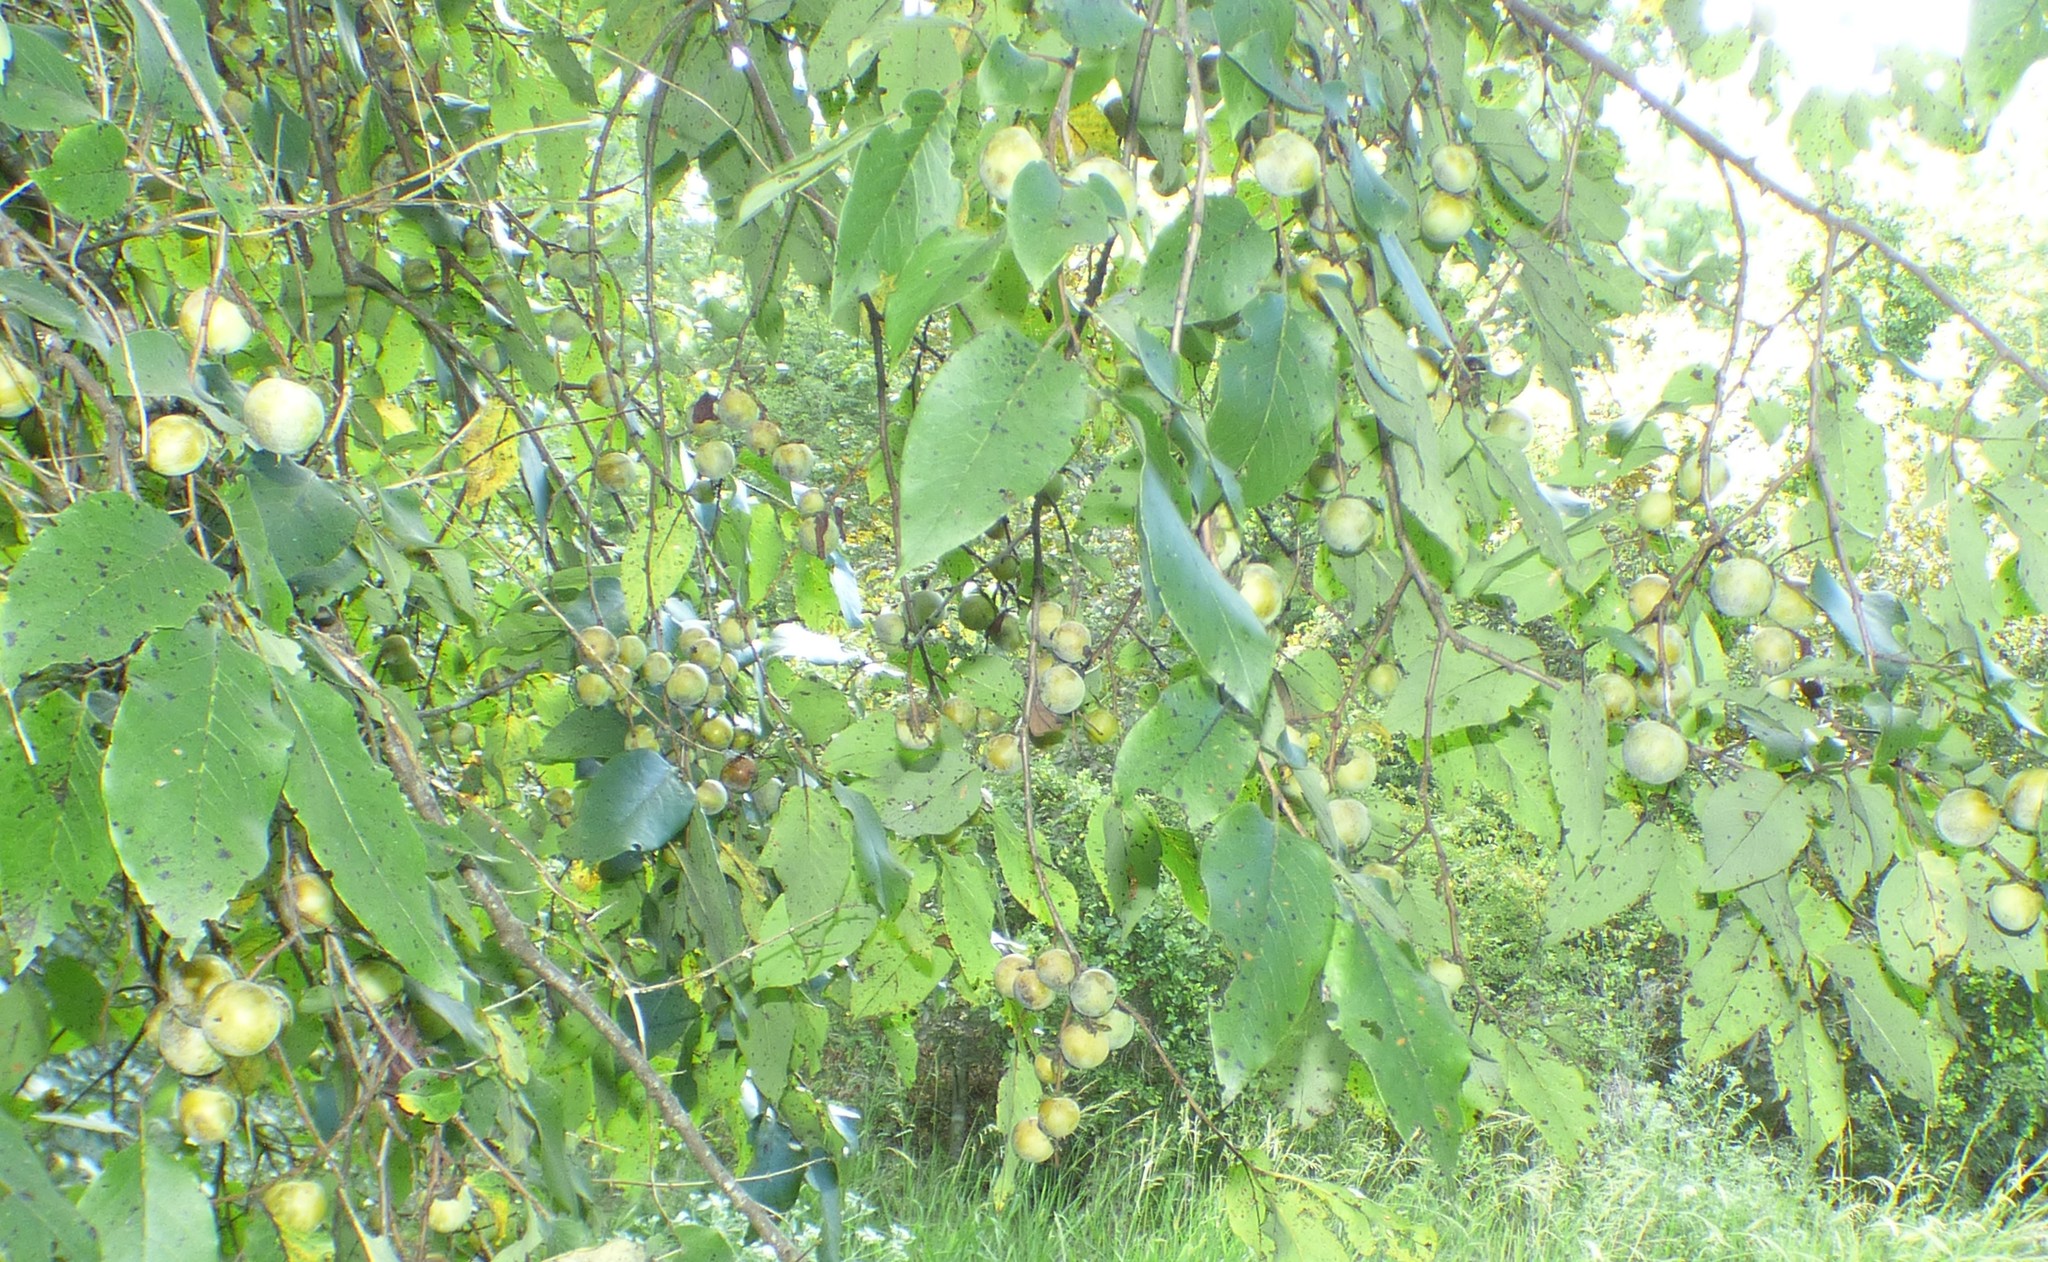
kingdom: Plantae
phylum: Tracheophyta
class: Magnoliopsida
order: Ericales
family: Ebenaceae
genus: Diospyros
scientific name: Diospyros virginiana
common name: Persimmon
